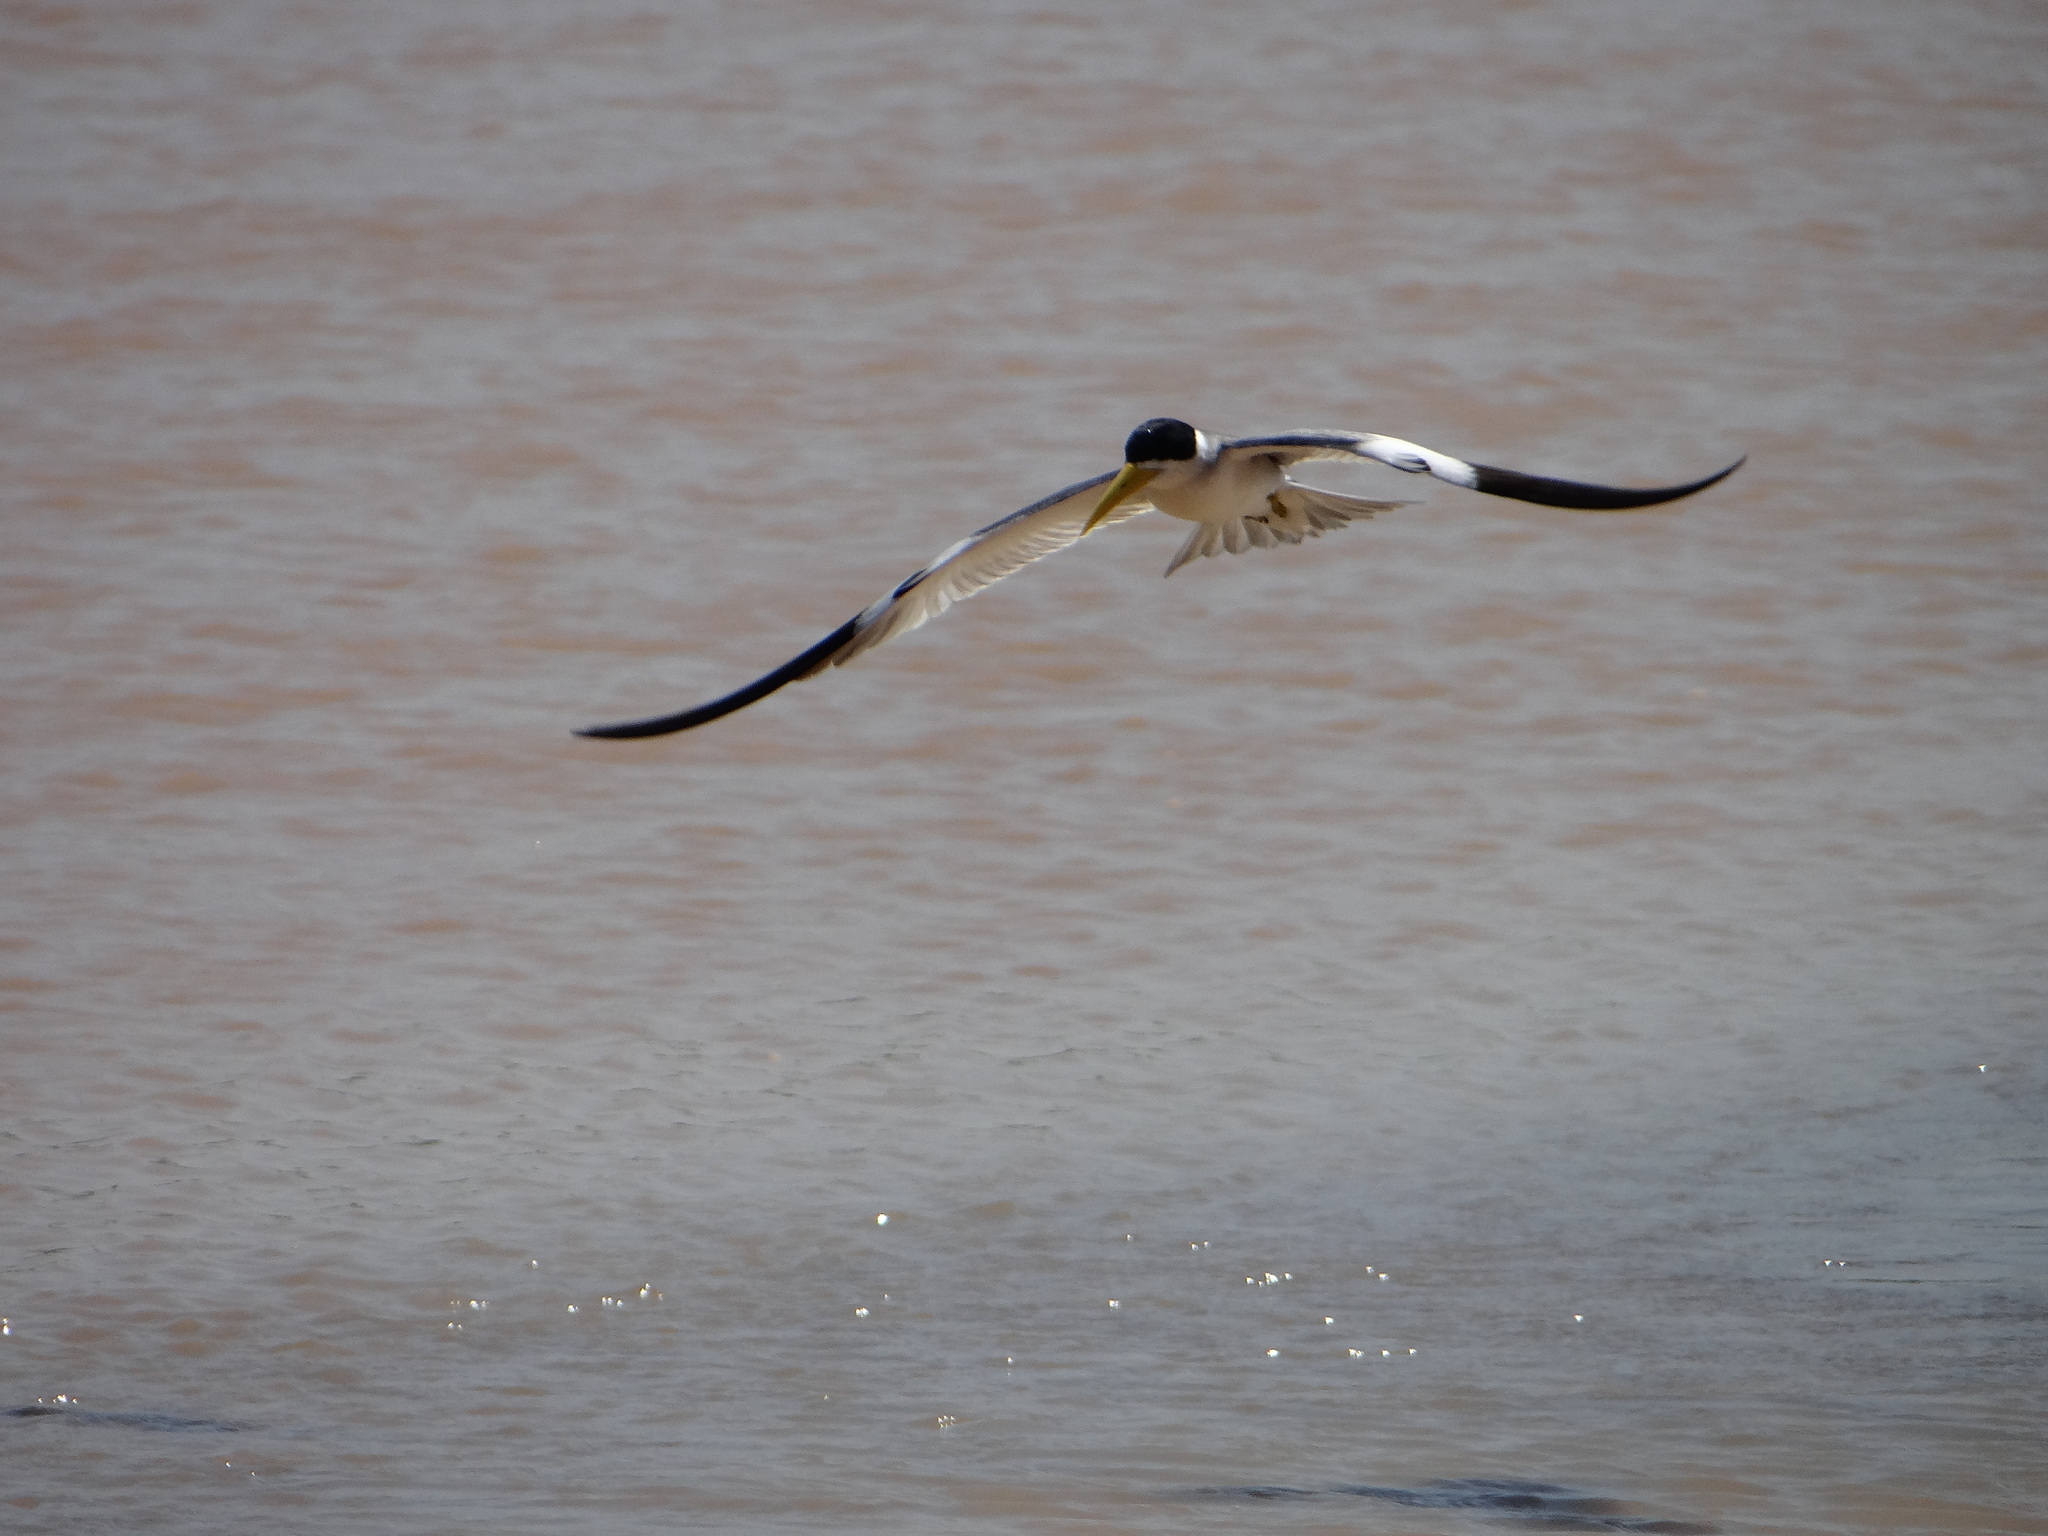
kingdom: Animalia
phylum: Chordata
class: Aves
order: Charadriiformes
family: Laridae
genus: Phaetusa
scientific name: Phaetusa simplex
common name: Large-billed tern
